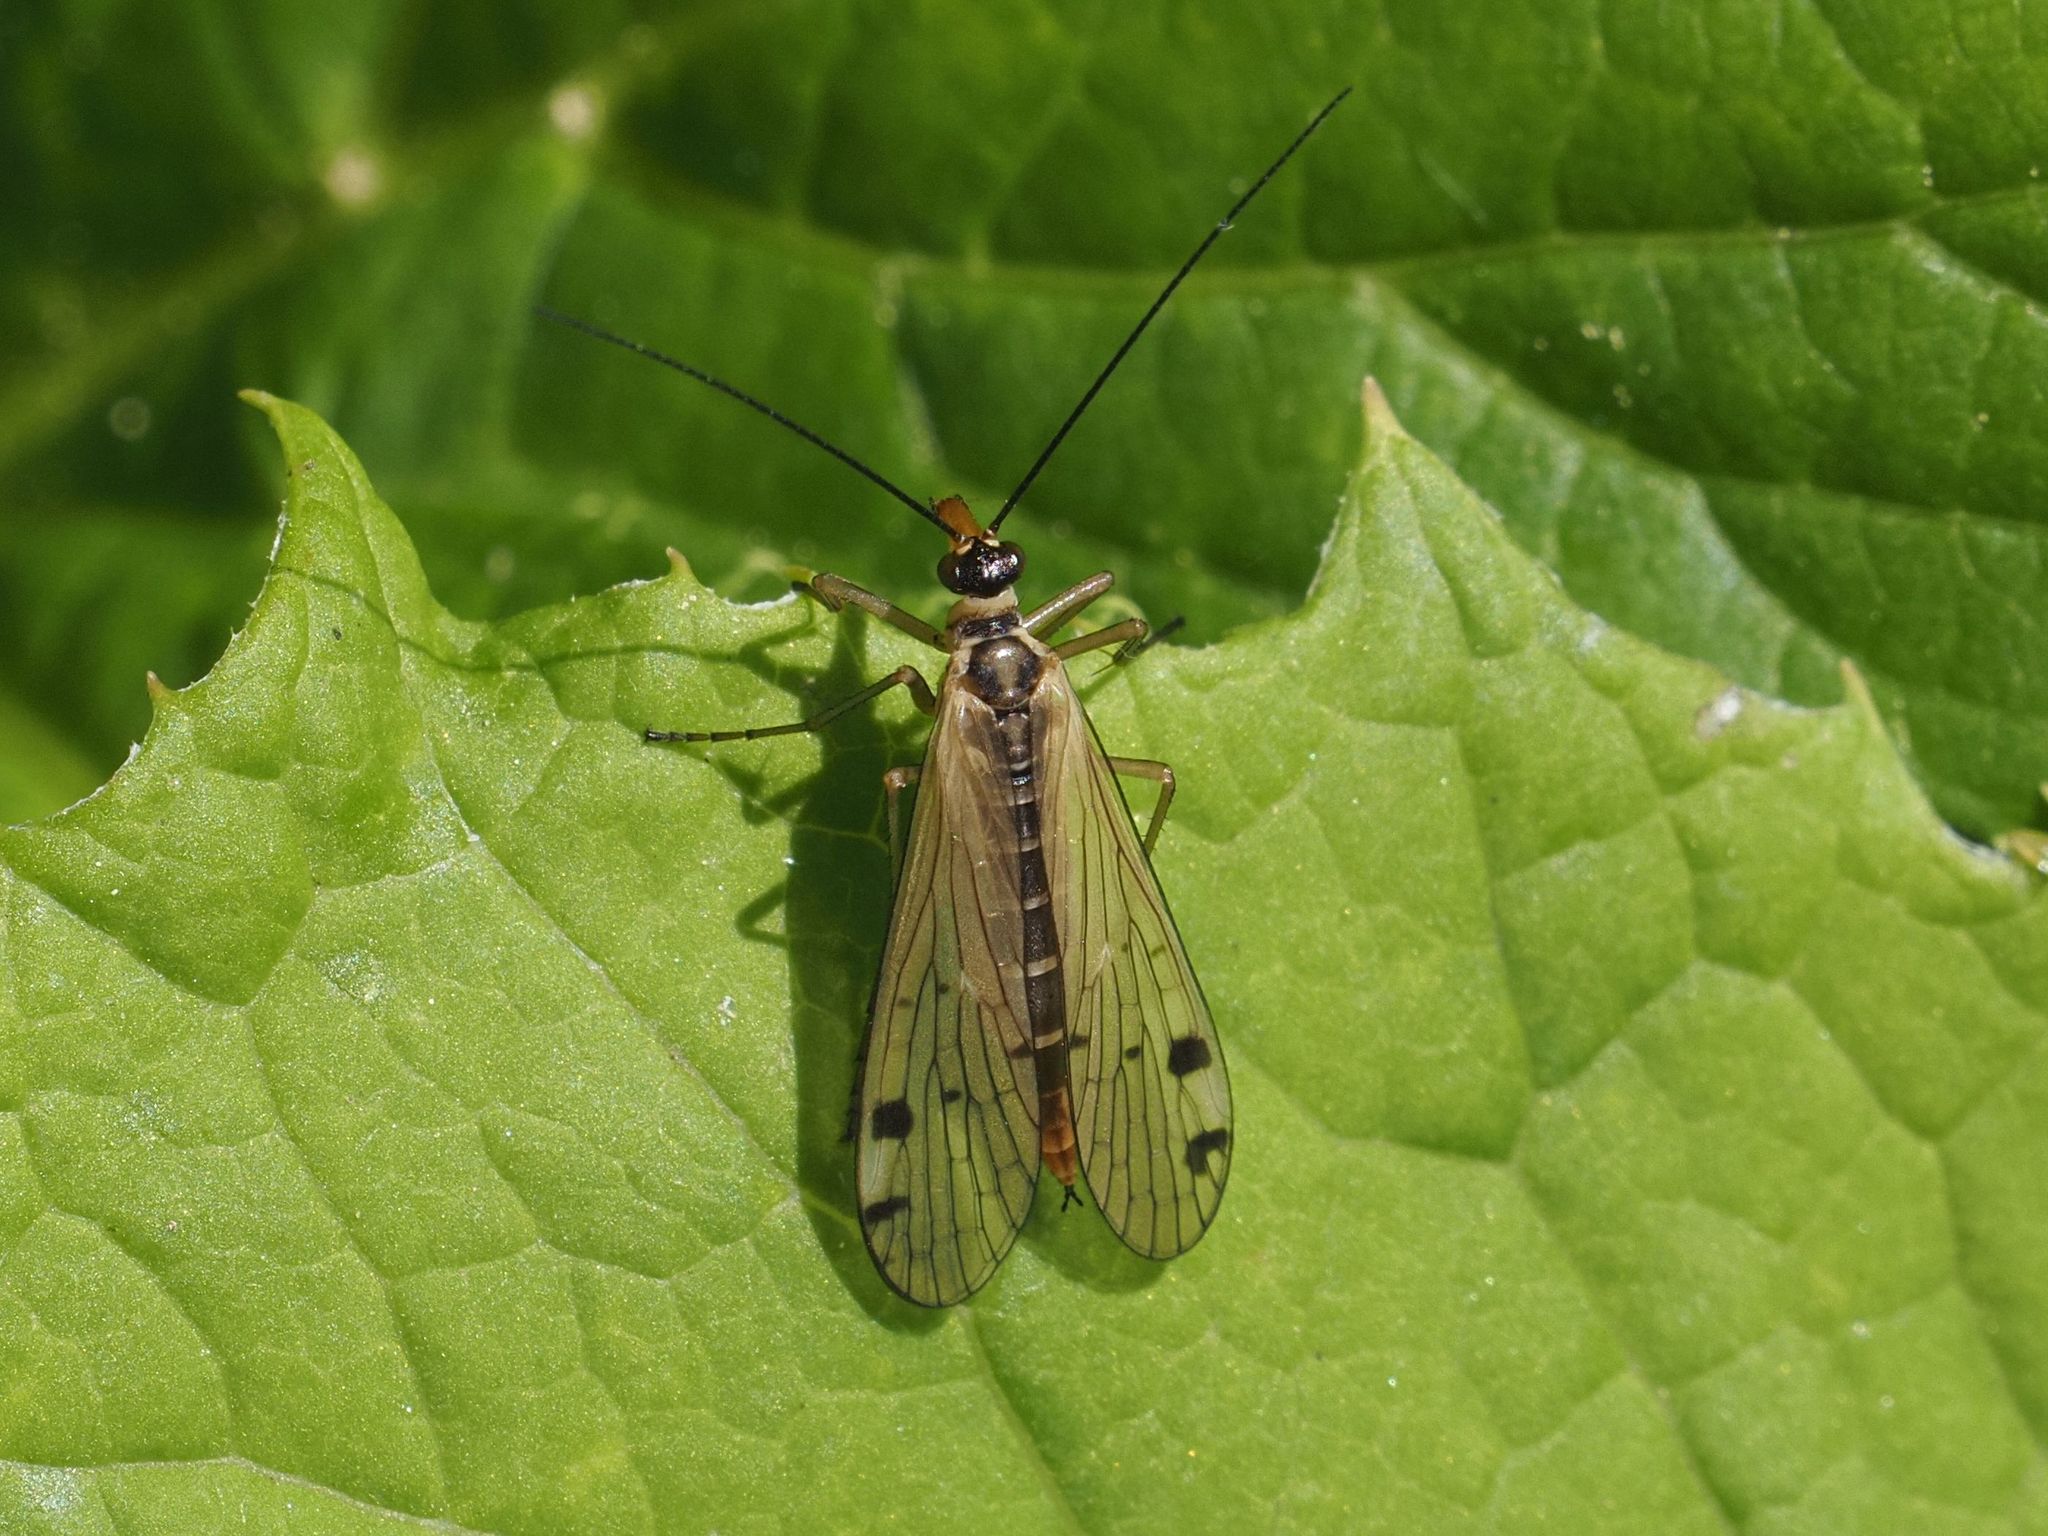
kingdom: Animalia
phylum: Arthropoda
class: Insecta
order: Mecoptera
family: Panorpidae
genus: Panorpa
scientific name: Panorpa alpina
